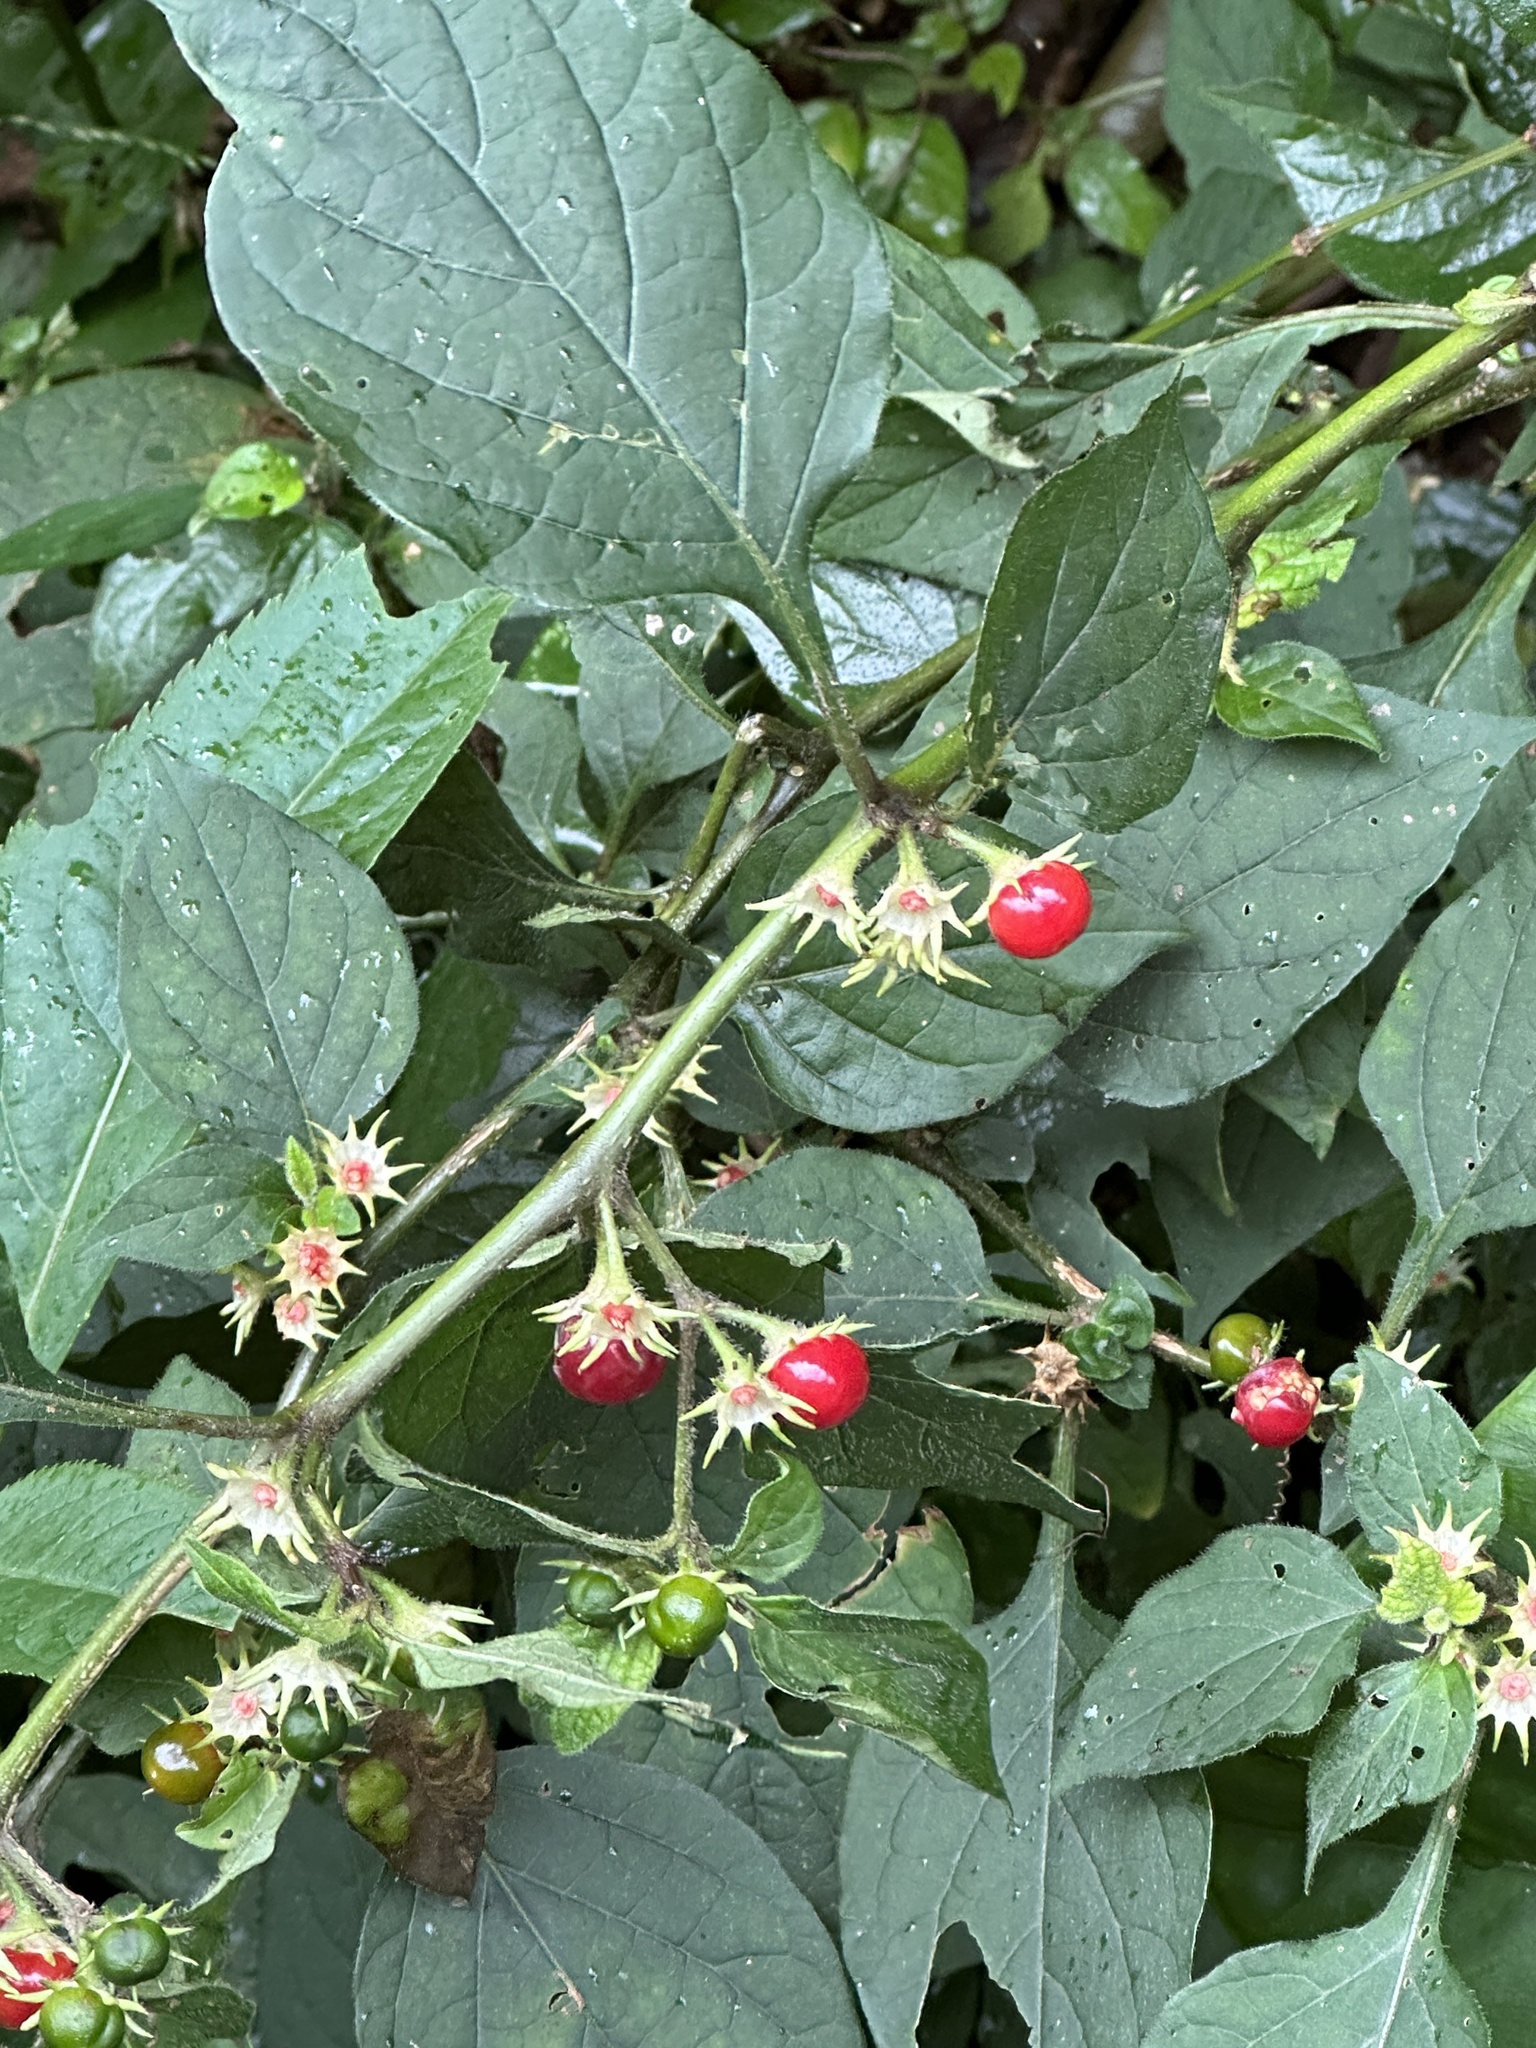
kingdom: Plantae
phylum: Tracheophyta
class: Magnoliopsida
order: Solanales
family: Solanaceae
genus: Lycianthes
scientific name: Lycianthes biflora
